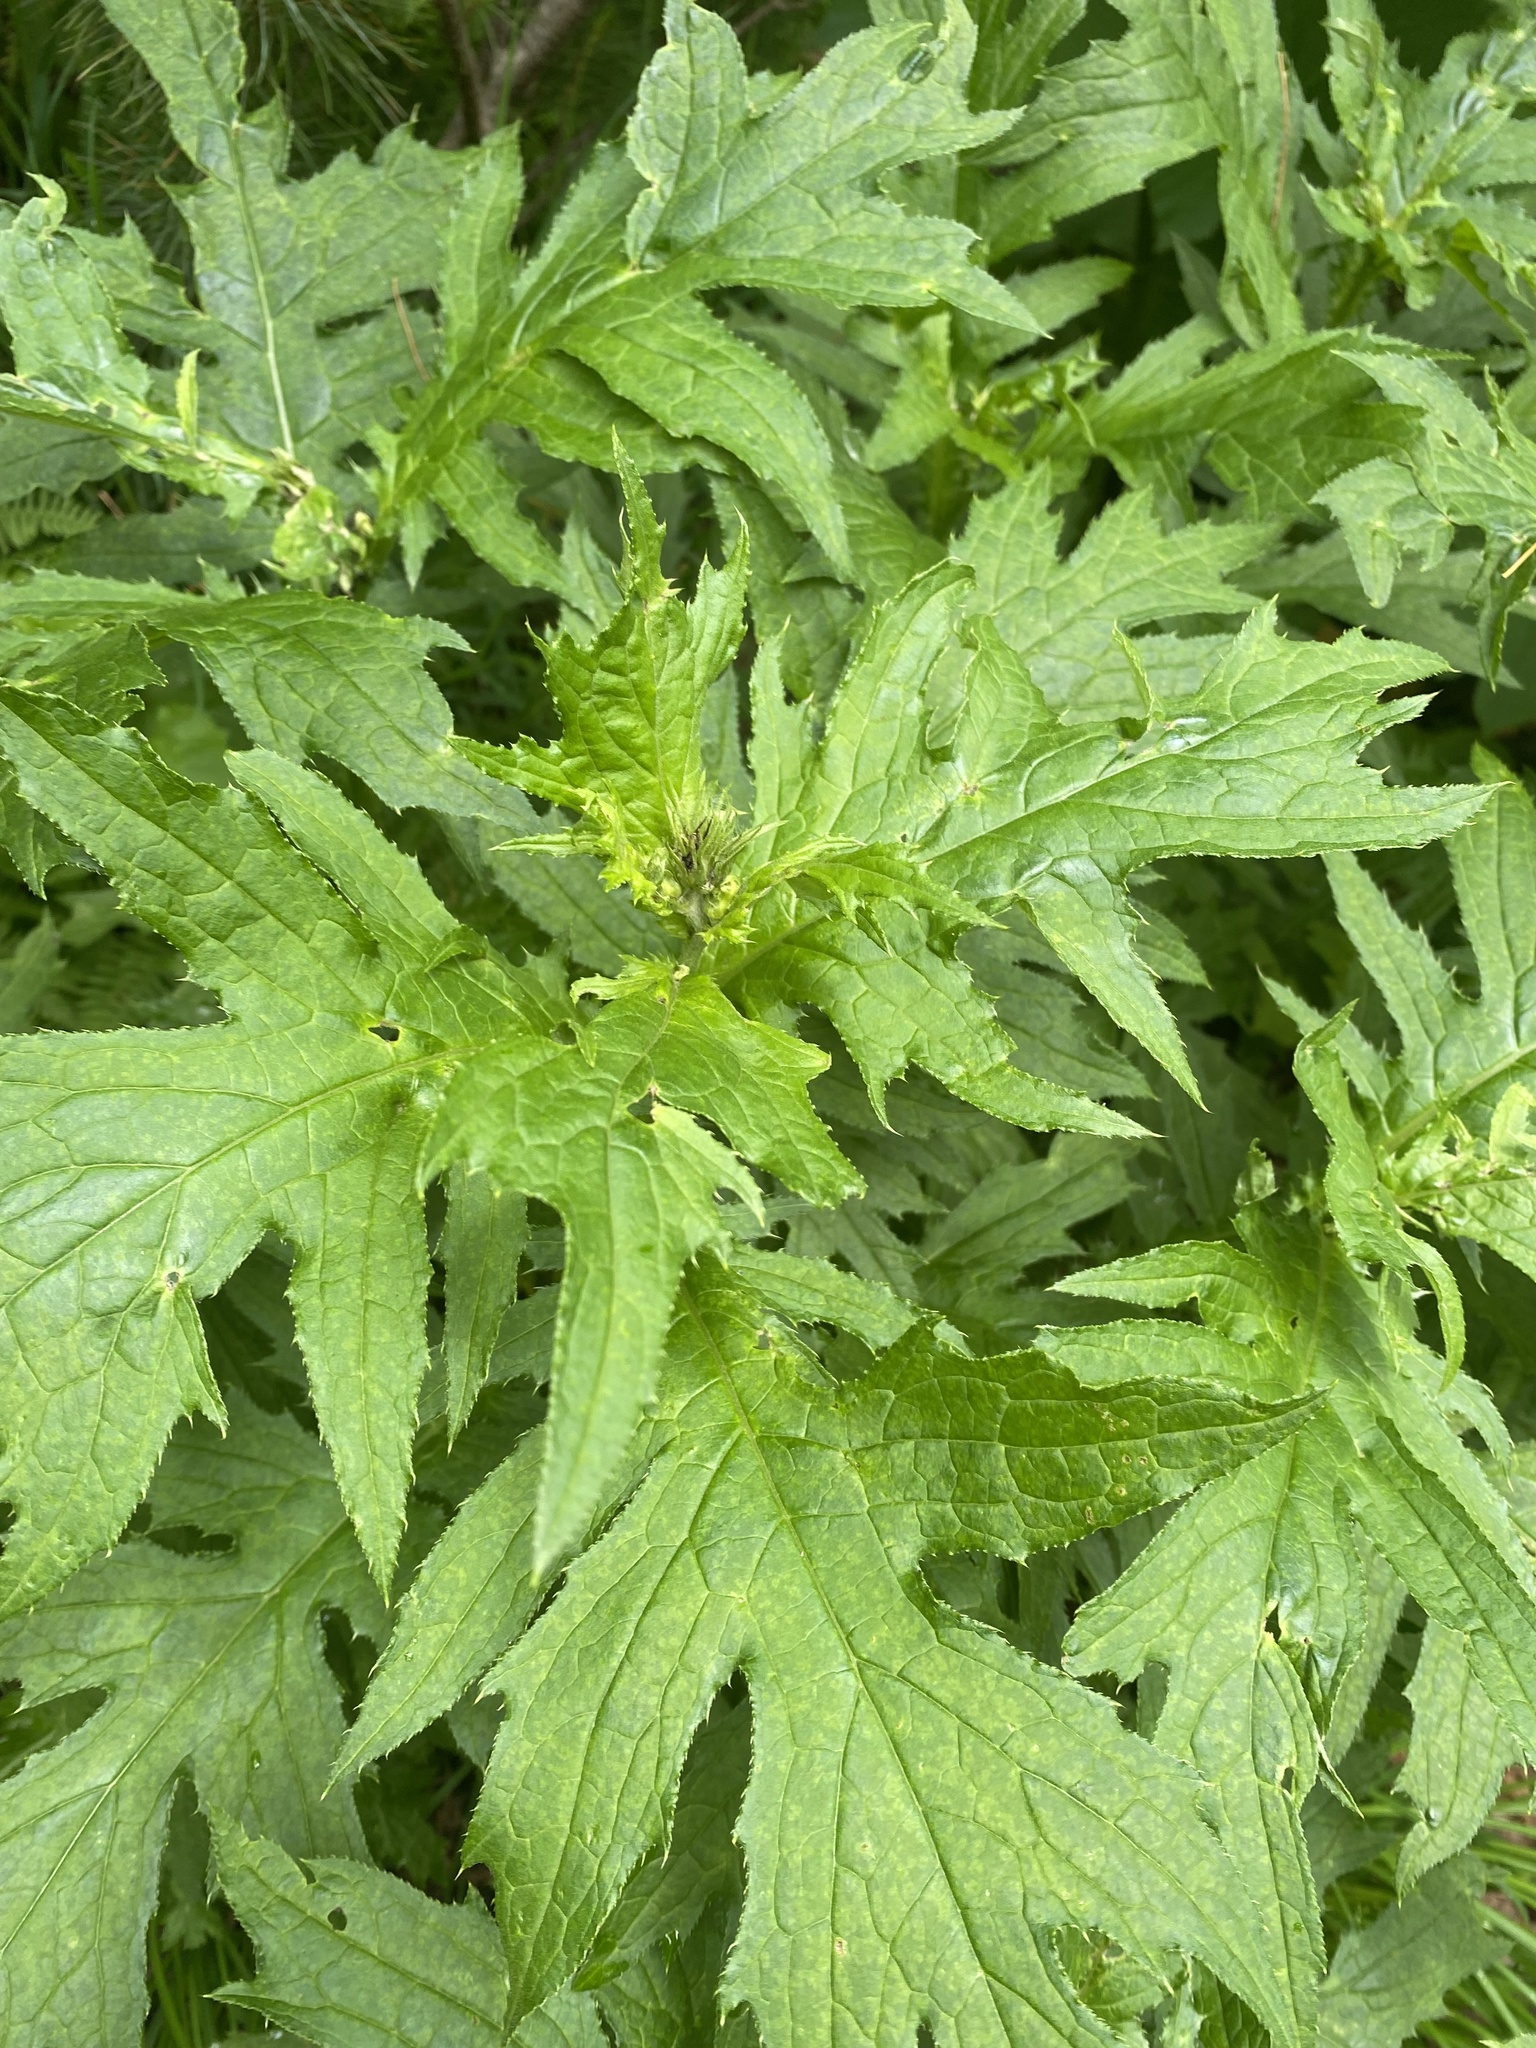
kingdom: Plantae
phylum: Tracheophyta
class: Magnoliopsida
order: Asterales
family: Asteraceae
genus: Cirsium
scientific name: Cirsium kamtschaticum
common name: Kamchatka thistle
